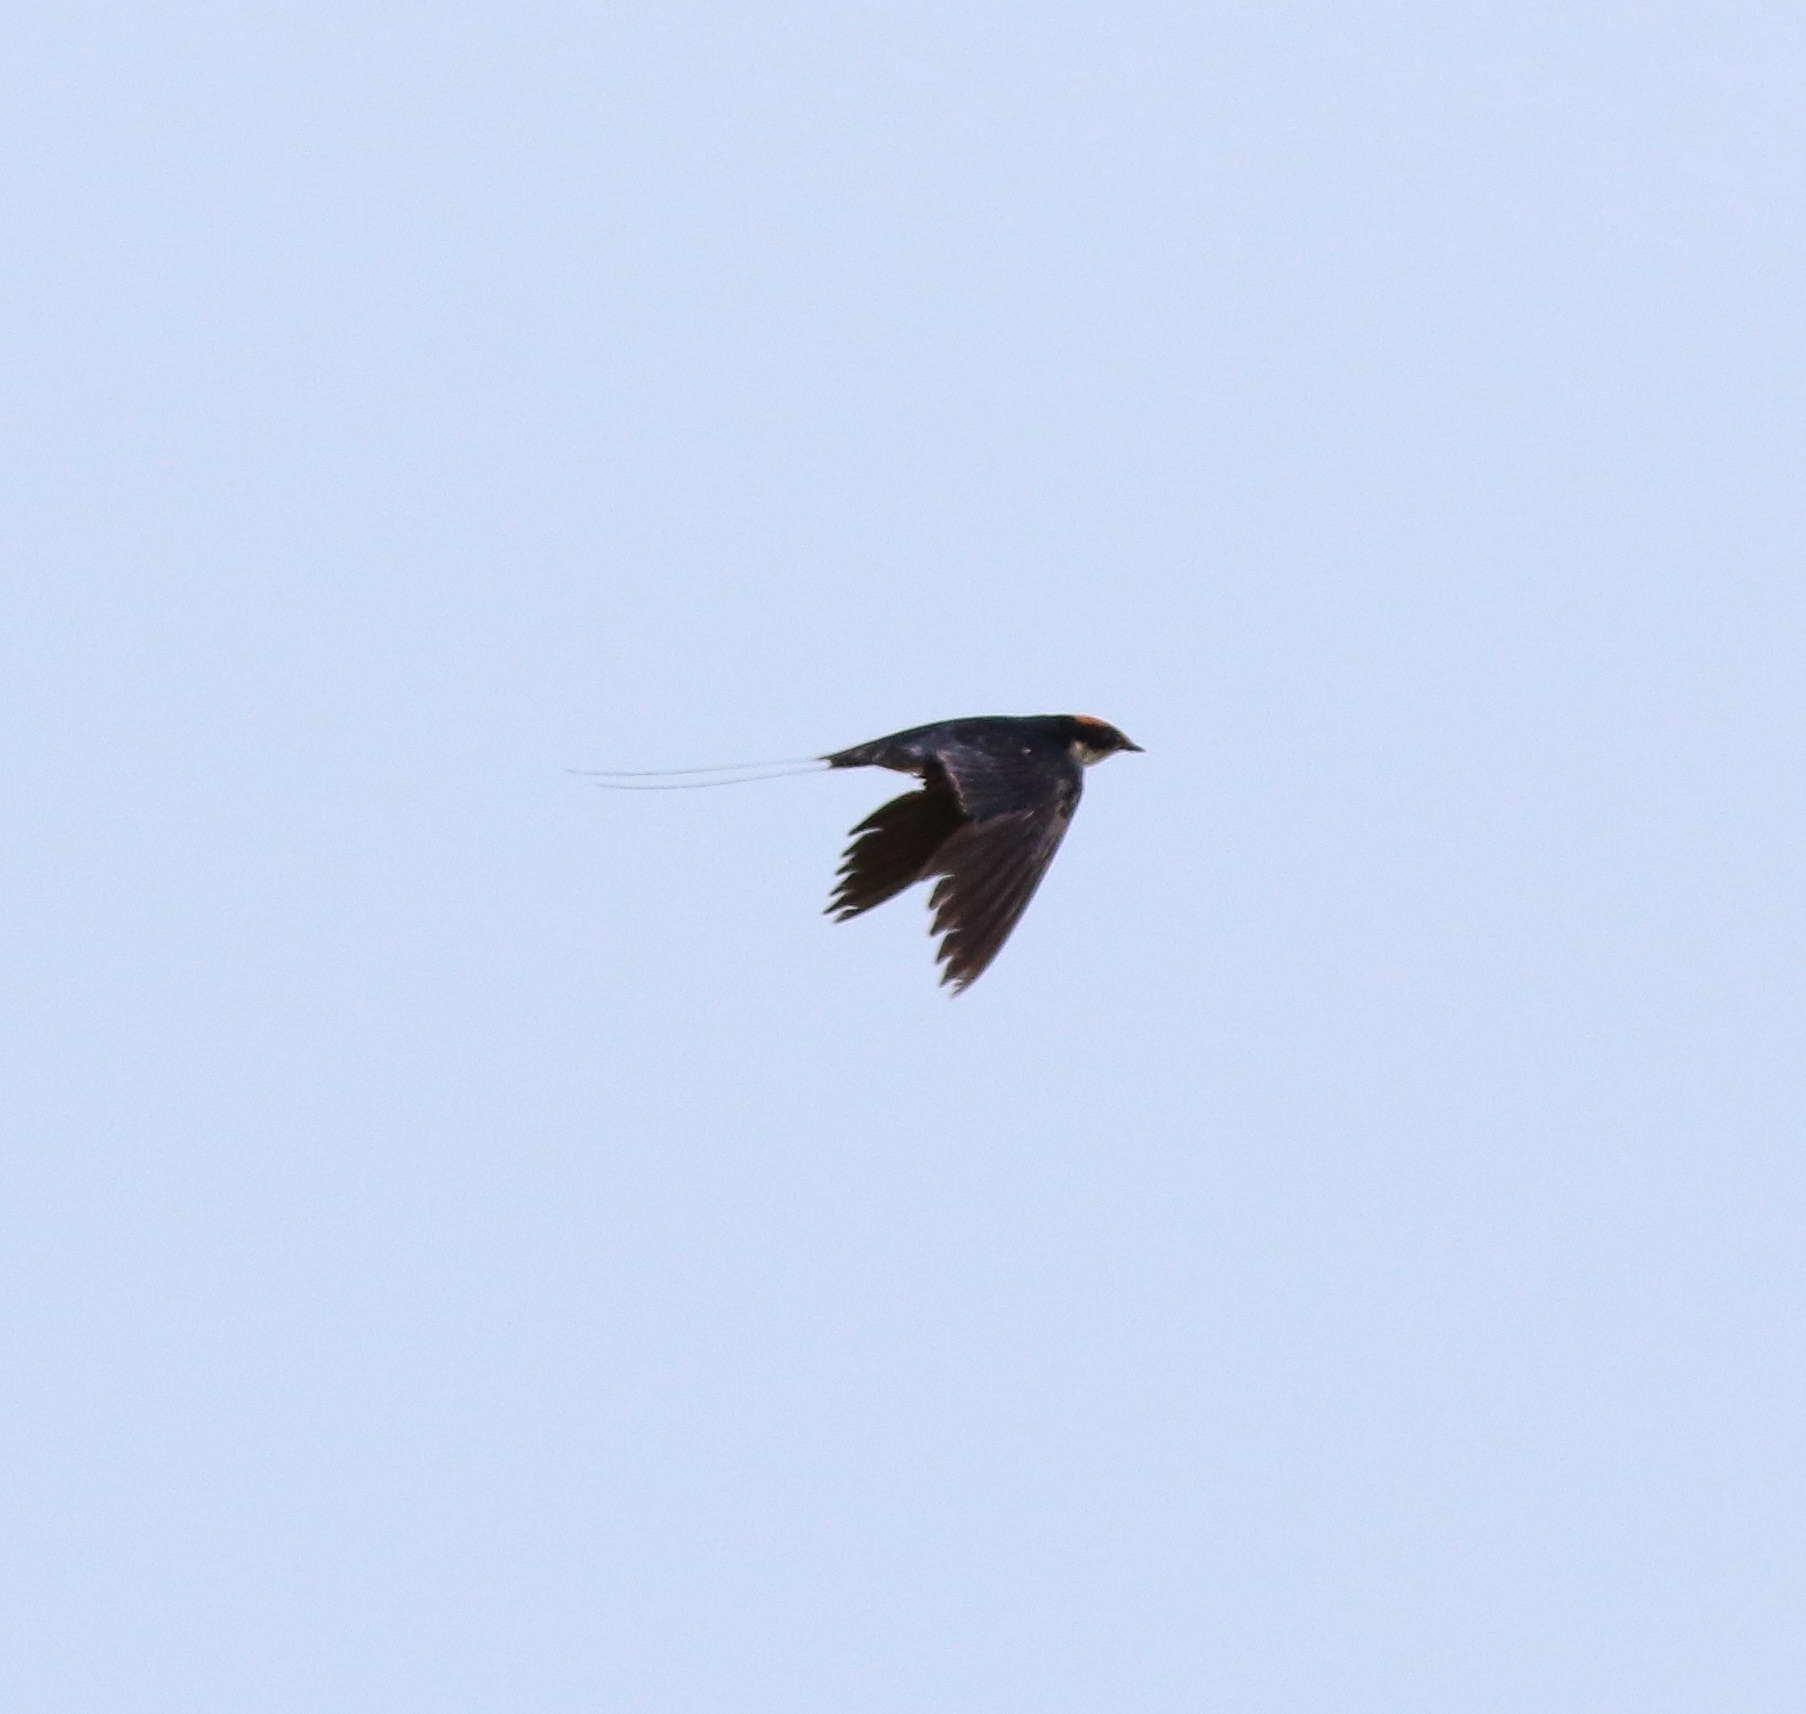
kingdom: Animalia
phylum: Chordata
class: Aves
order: Passeriformes
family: Hirundinidae
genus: Hirundo
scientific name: Hirundo smithii
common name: Wire-tailed swallow
